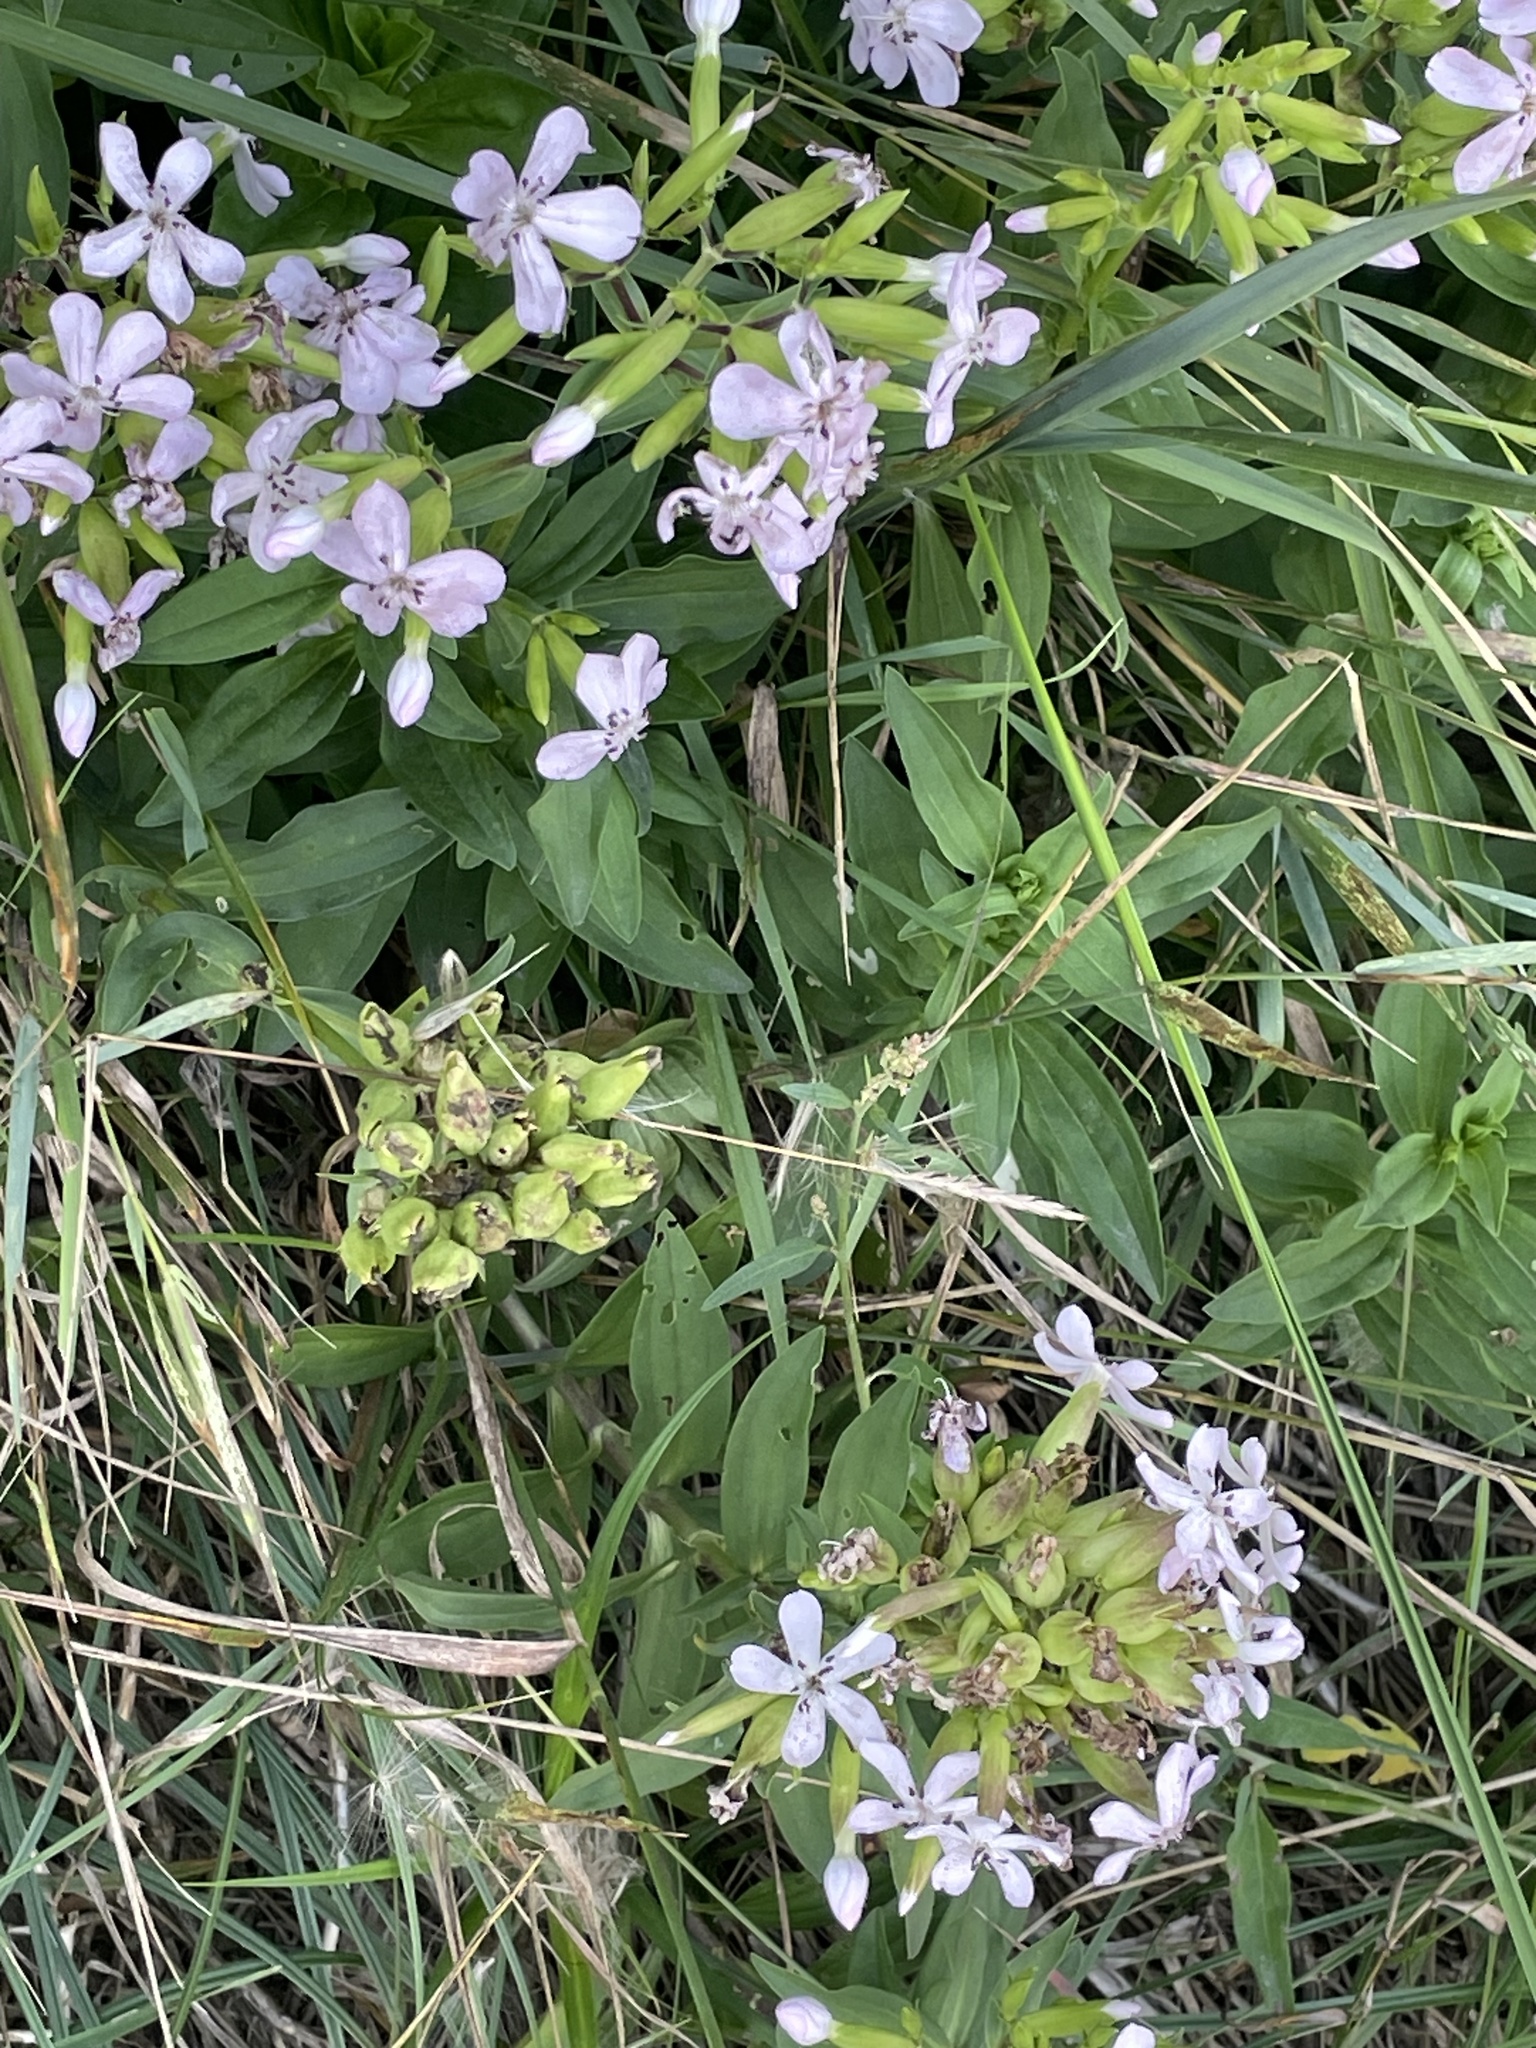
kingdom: Plantae
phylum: Tracheophyta
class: Magnoliopsida
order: Caryophyllales
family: Caryophyllaceae
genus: Saponaria
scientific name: Saponaria officinalis
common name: Soapwort
